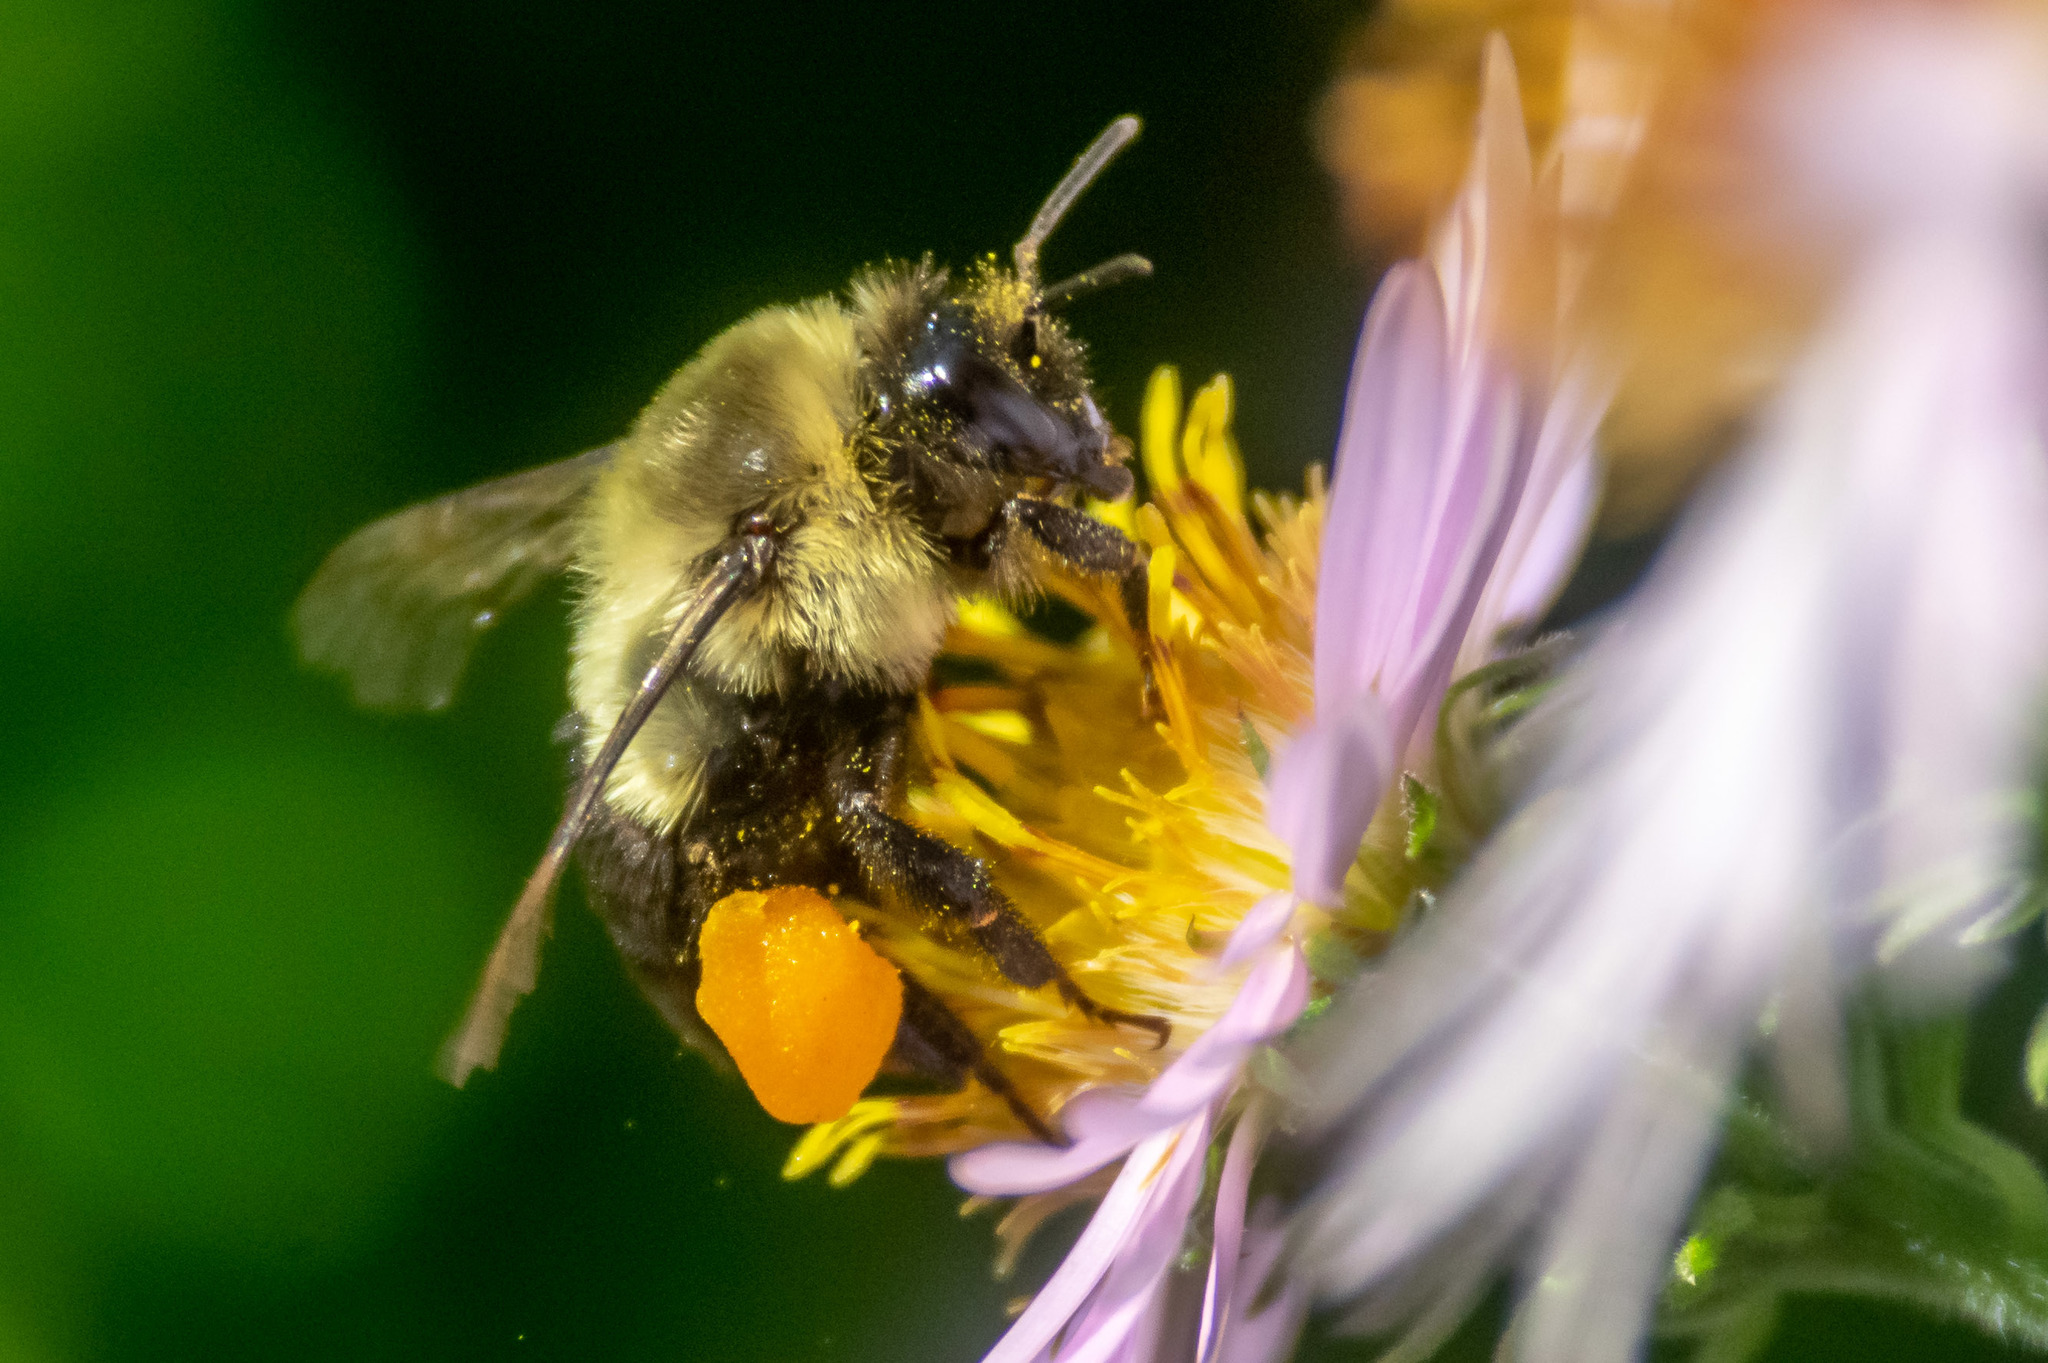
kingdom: Animalia
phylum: Arthropoda
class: Insecta
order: Hymenoptera
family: Apidae
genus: Bombus
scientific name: Bombus impatiens
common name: Common eastern bumble bee
